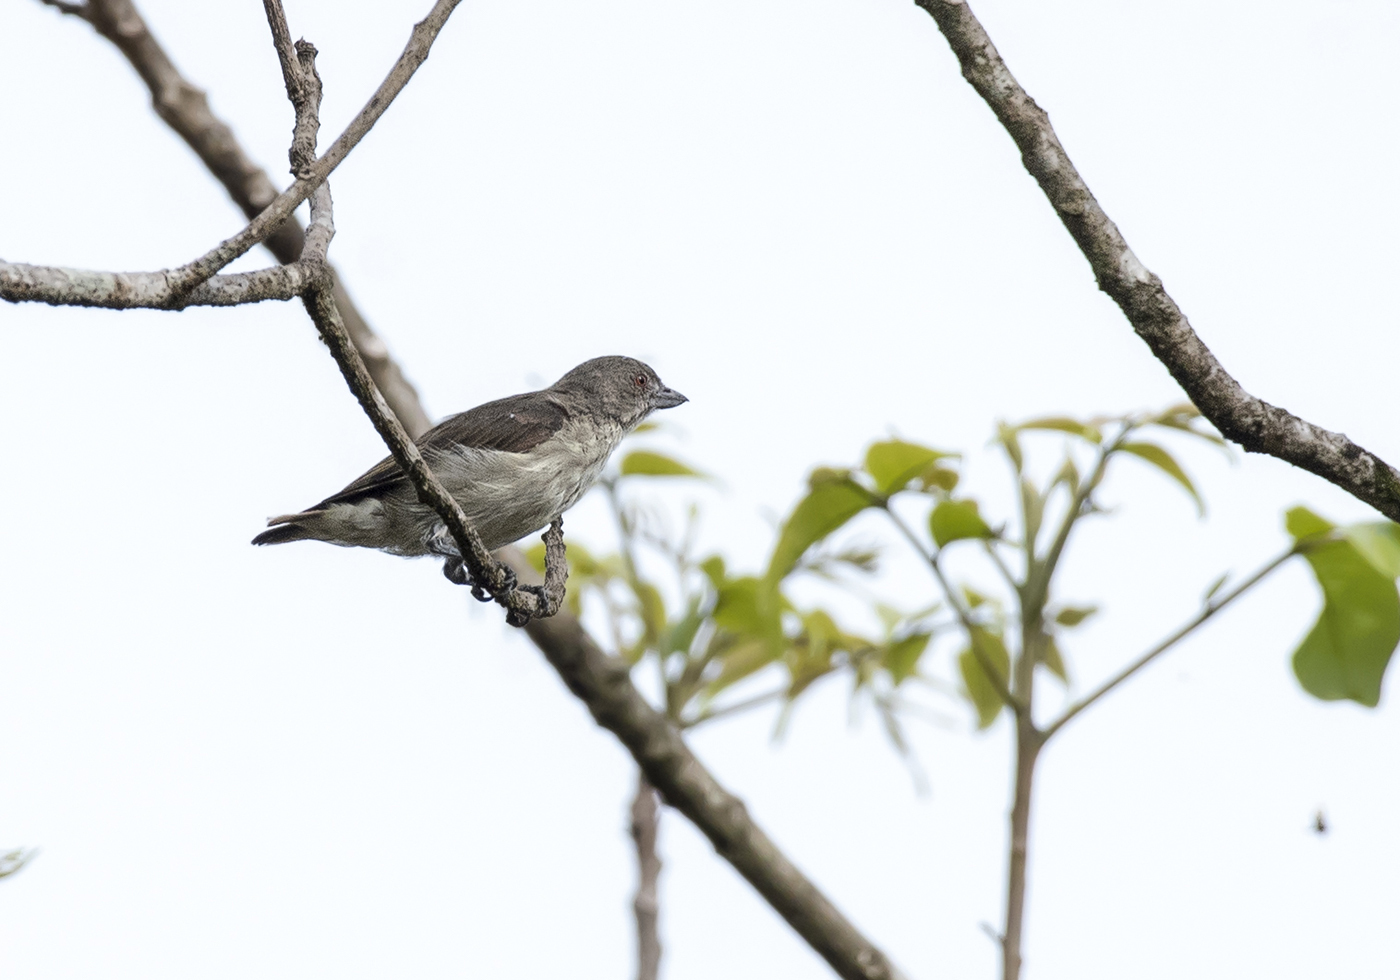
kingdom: Animalia
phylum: Chordata
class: Aves
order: Passeriformes
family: Dicaeidae
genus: Dicaeum
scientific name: Dicaeum agile
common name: Thick-billed flowerpecker
